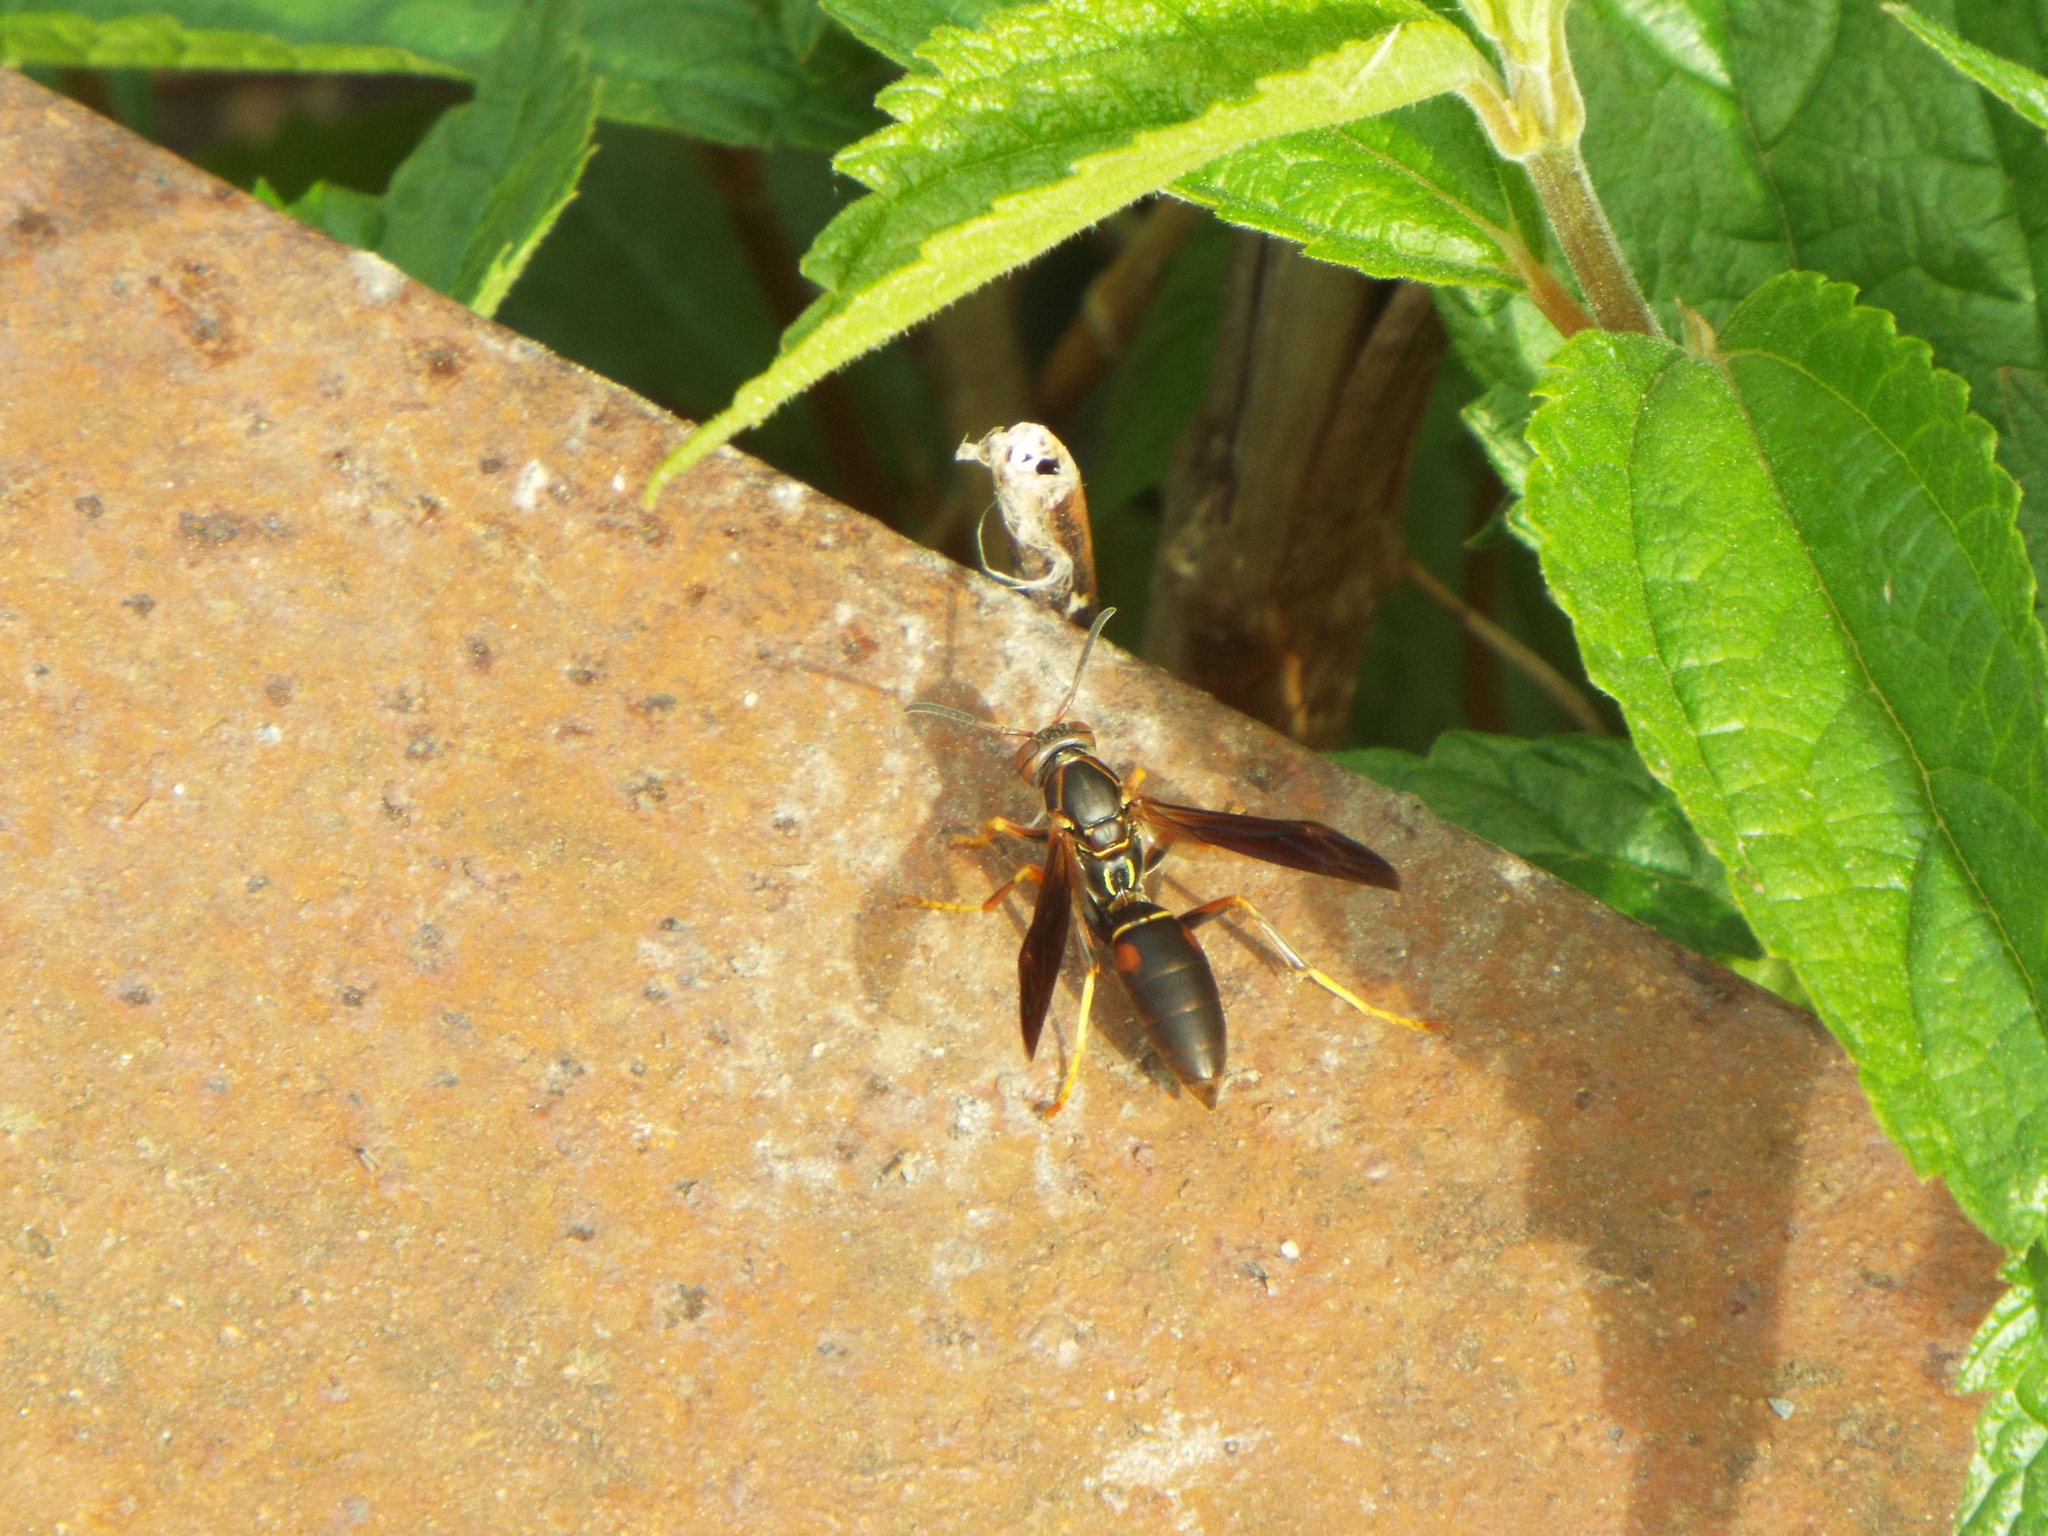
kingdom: Animalia
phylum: Arthropoda
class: Insecta
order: Hymenoptera
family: Eumenidae
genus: Polistes
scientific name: Polistes fuscatus
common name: Dark paper wasp
